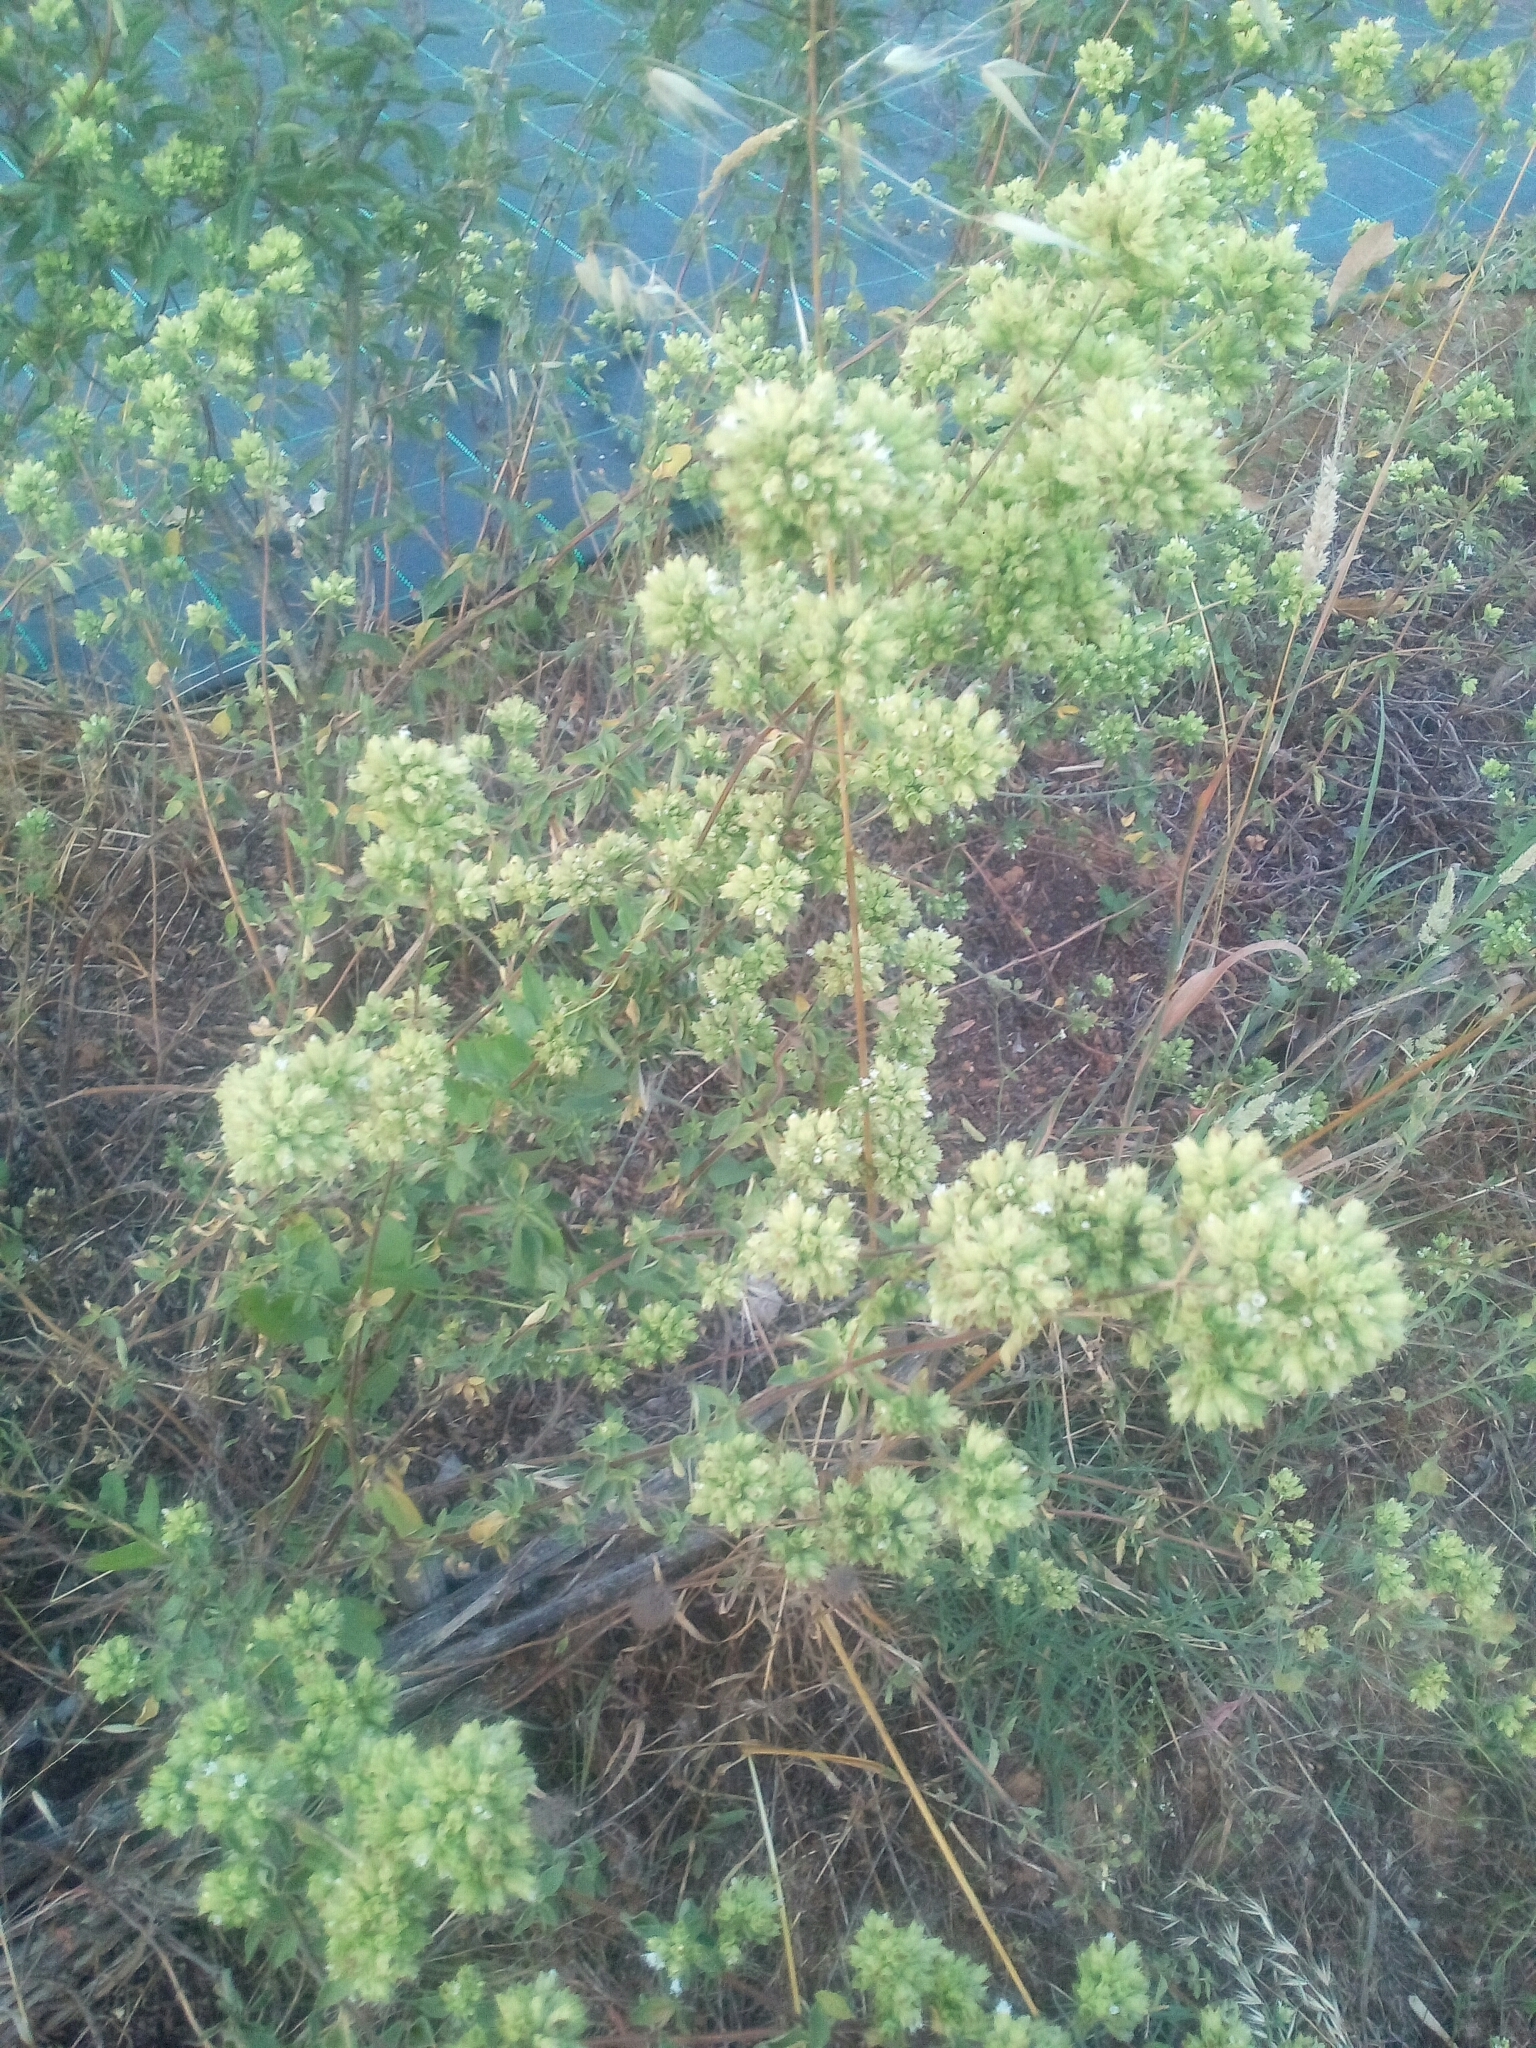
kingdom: Plantae
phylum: Tracheophyta
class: Magnoliopsida
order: Lamiales
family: Lamiaceae
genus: Origanum
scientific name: Origanum vulgare
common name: Wild marjoram
